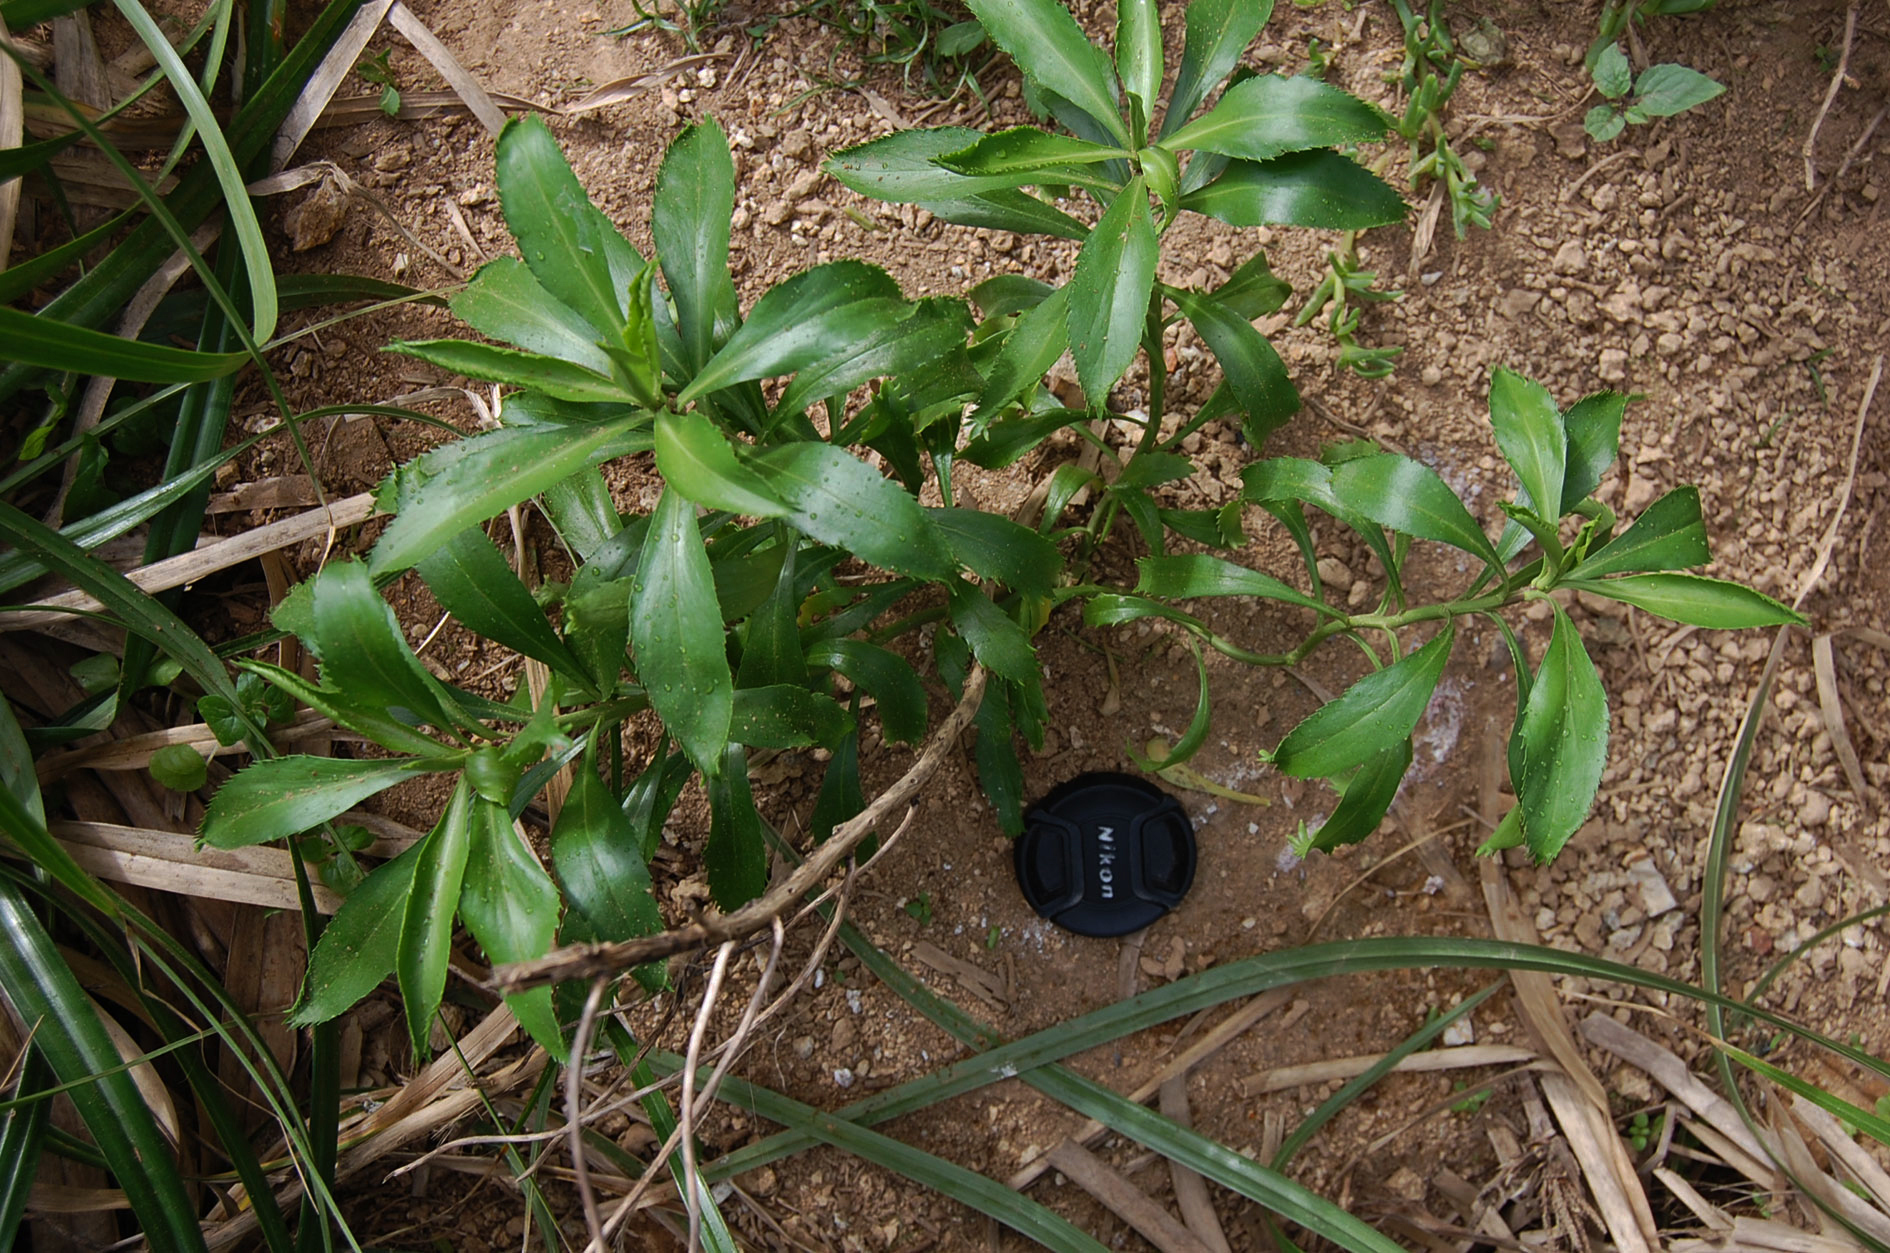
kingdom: Plantae
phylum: Tracheophyta
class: Magnoliopsida
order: Brassicales
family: Brassicaceae
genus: Lepidium
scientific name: Lepidium castellanum
